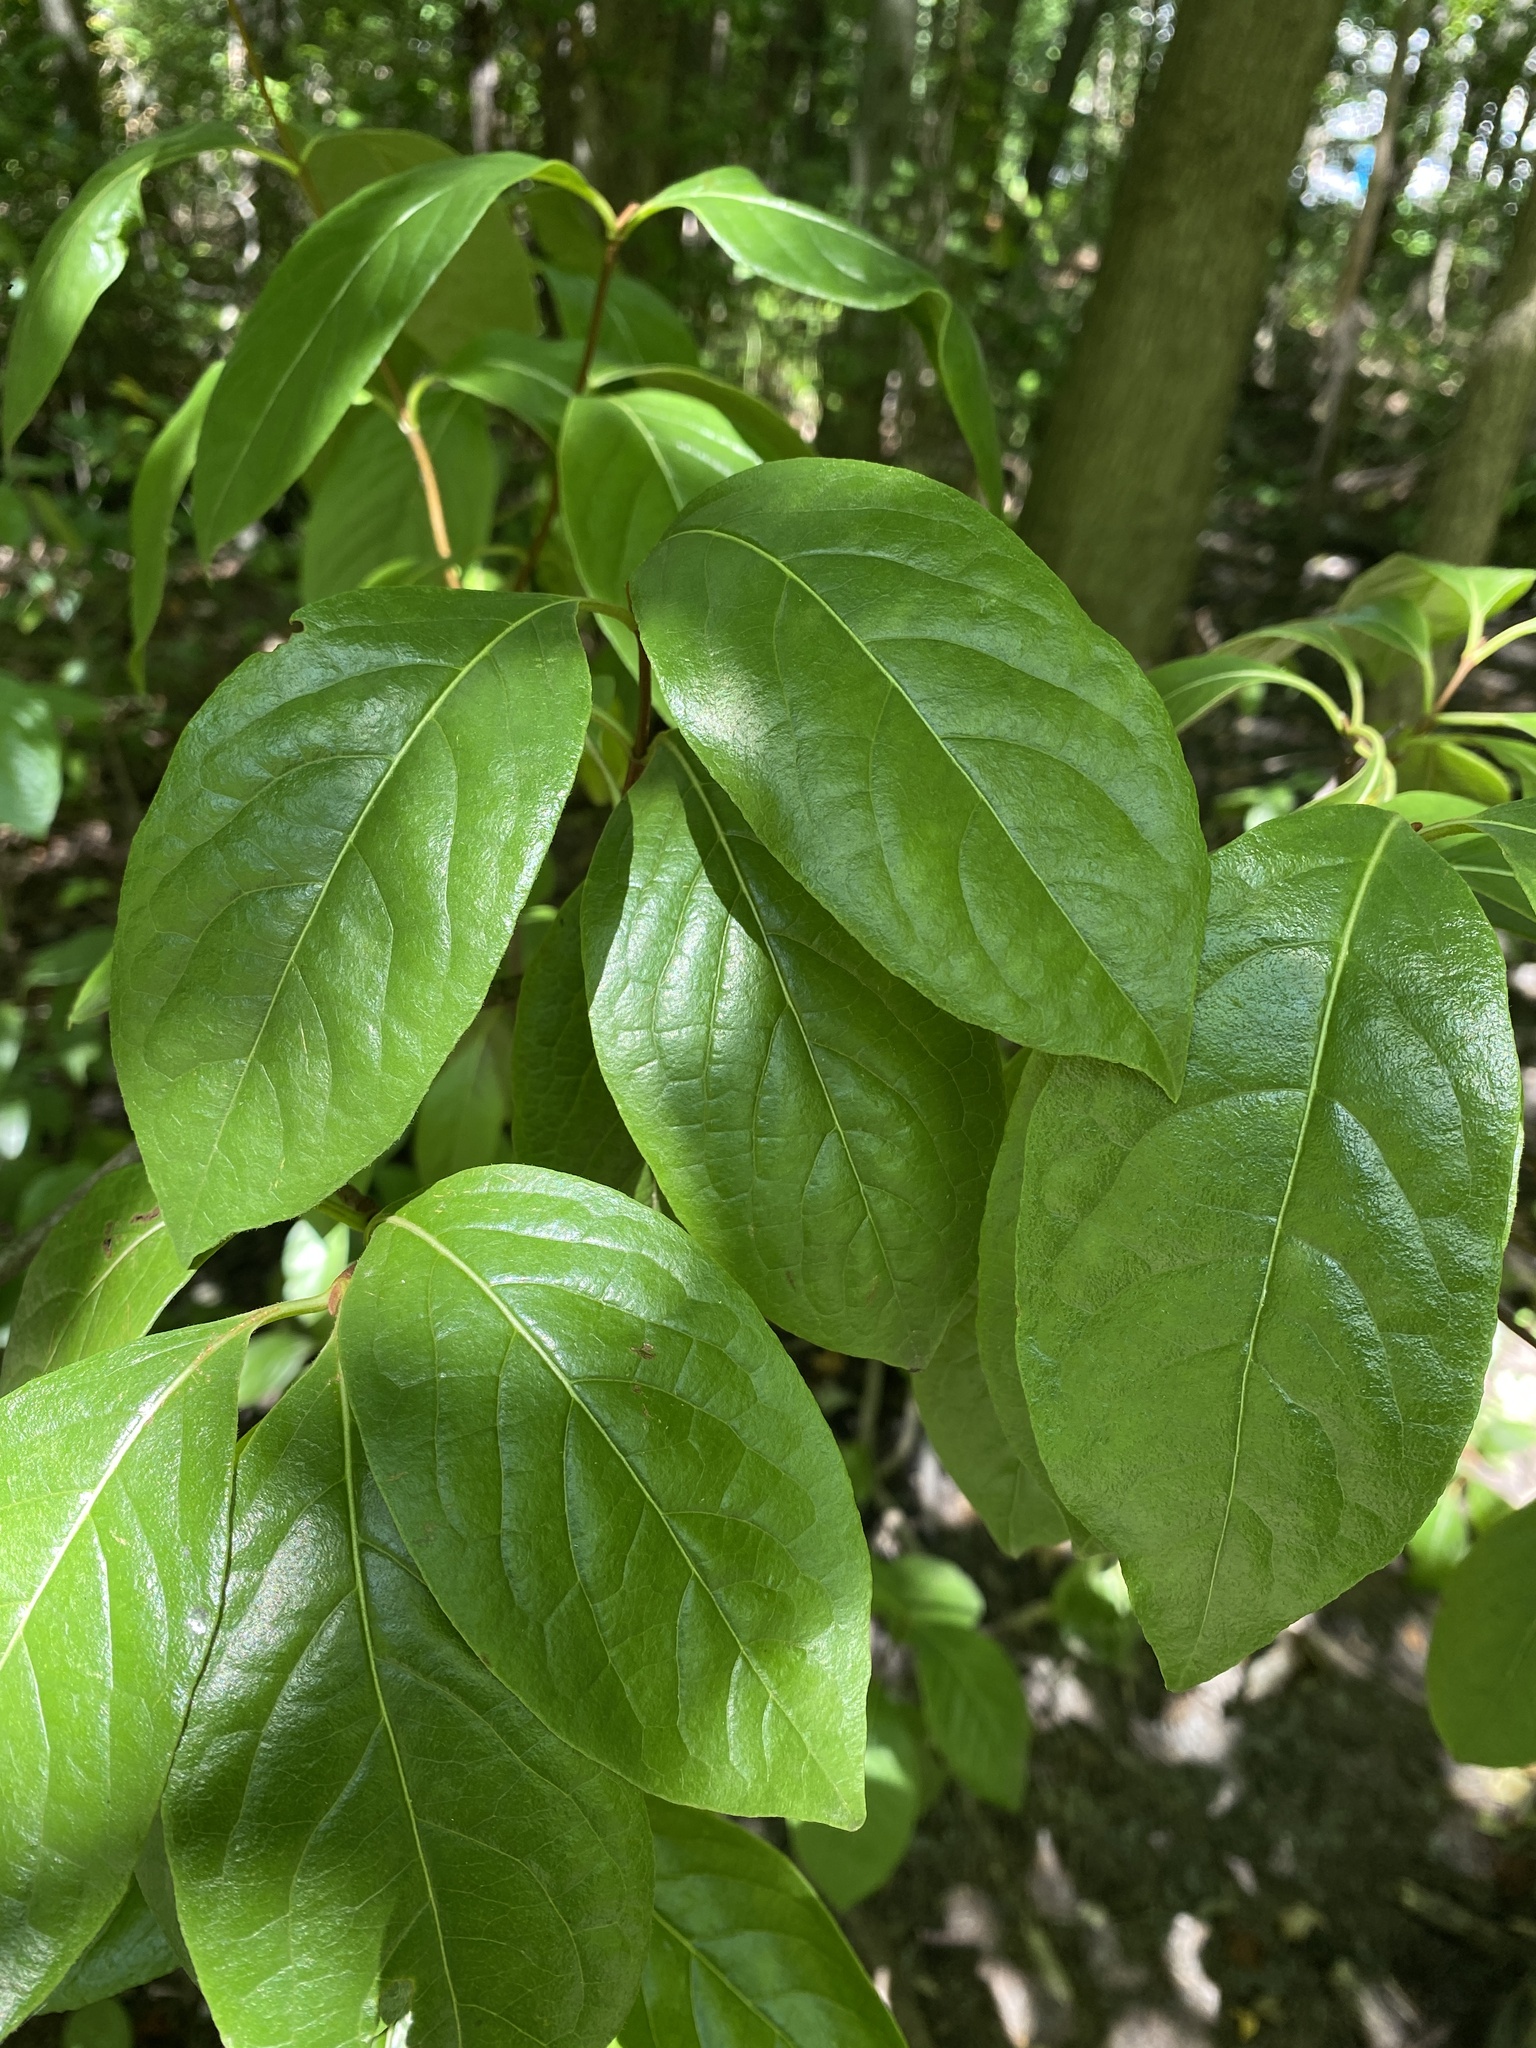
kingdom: Plantae
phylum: Tracheophyta
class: Magnoliopsida
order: Dipsacales
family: Viburnaceae
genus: Viburnum
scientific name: Viburnum nudum
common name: Possum haw
